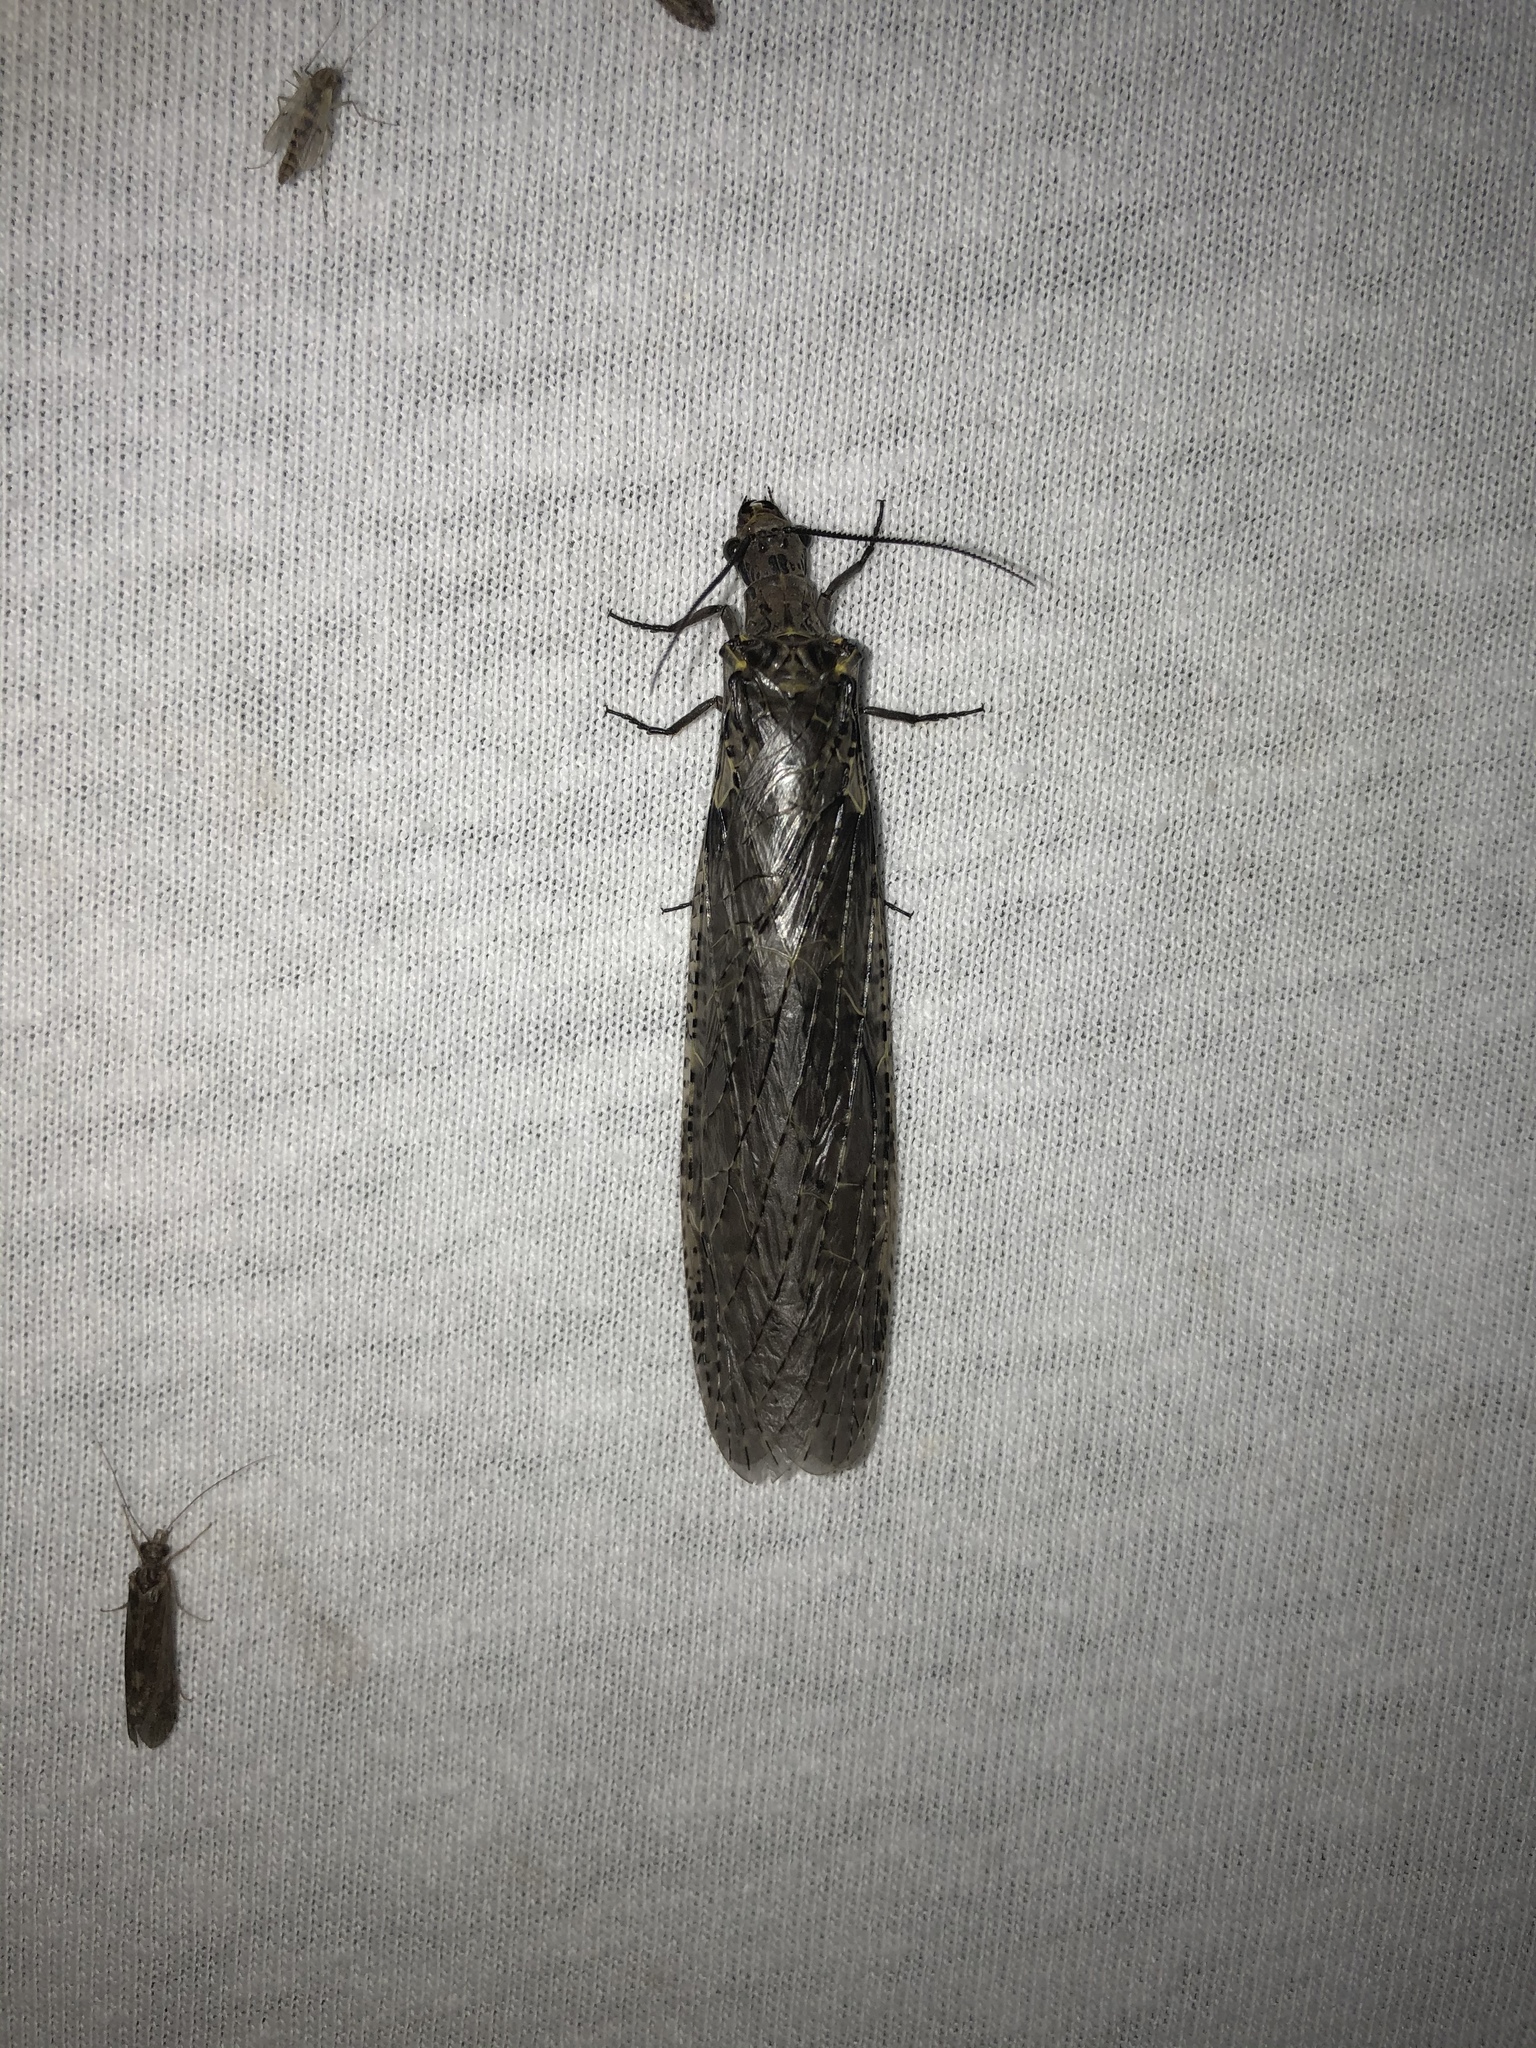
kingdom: Animalia
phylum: Arthropoda
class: Insecta
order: Megaloptera
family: Corydalidae
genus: Chauliodes
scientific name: Chauliodes rastricornis
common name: Spring fishfly
